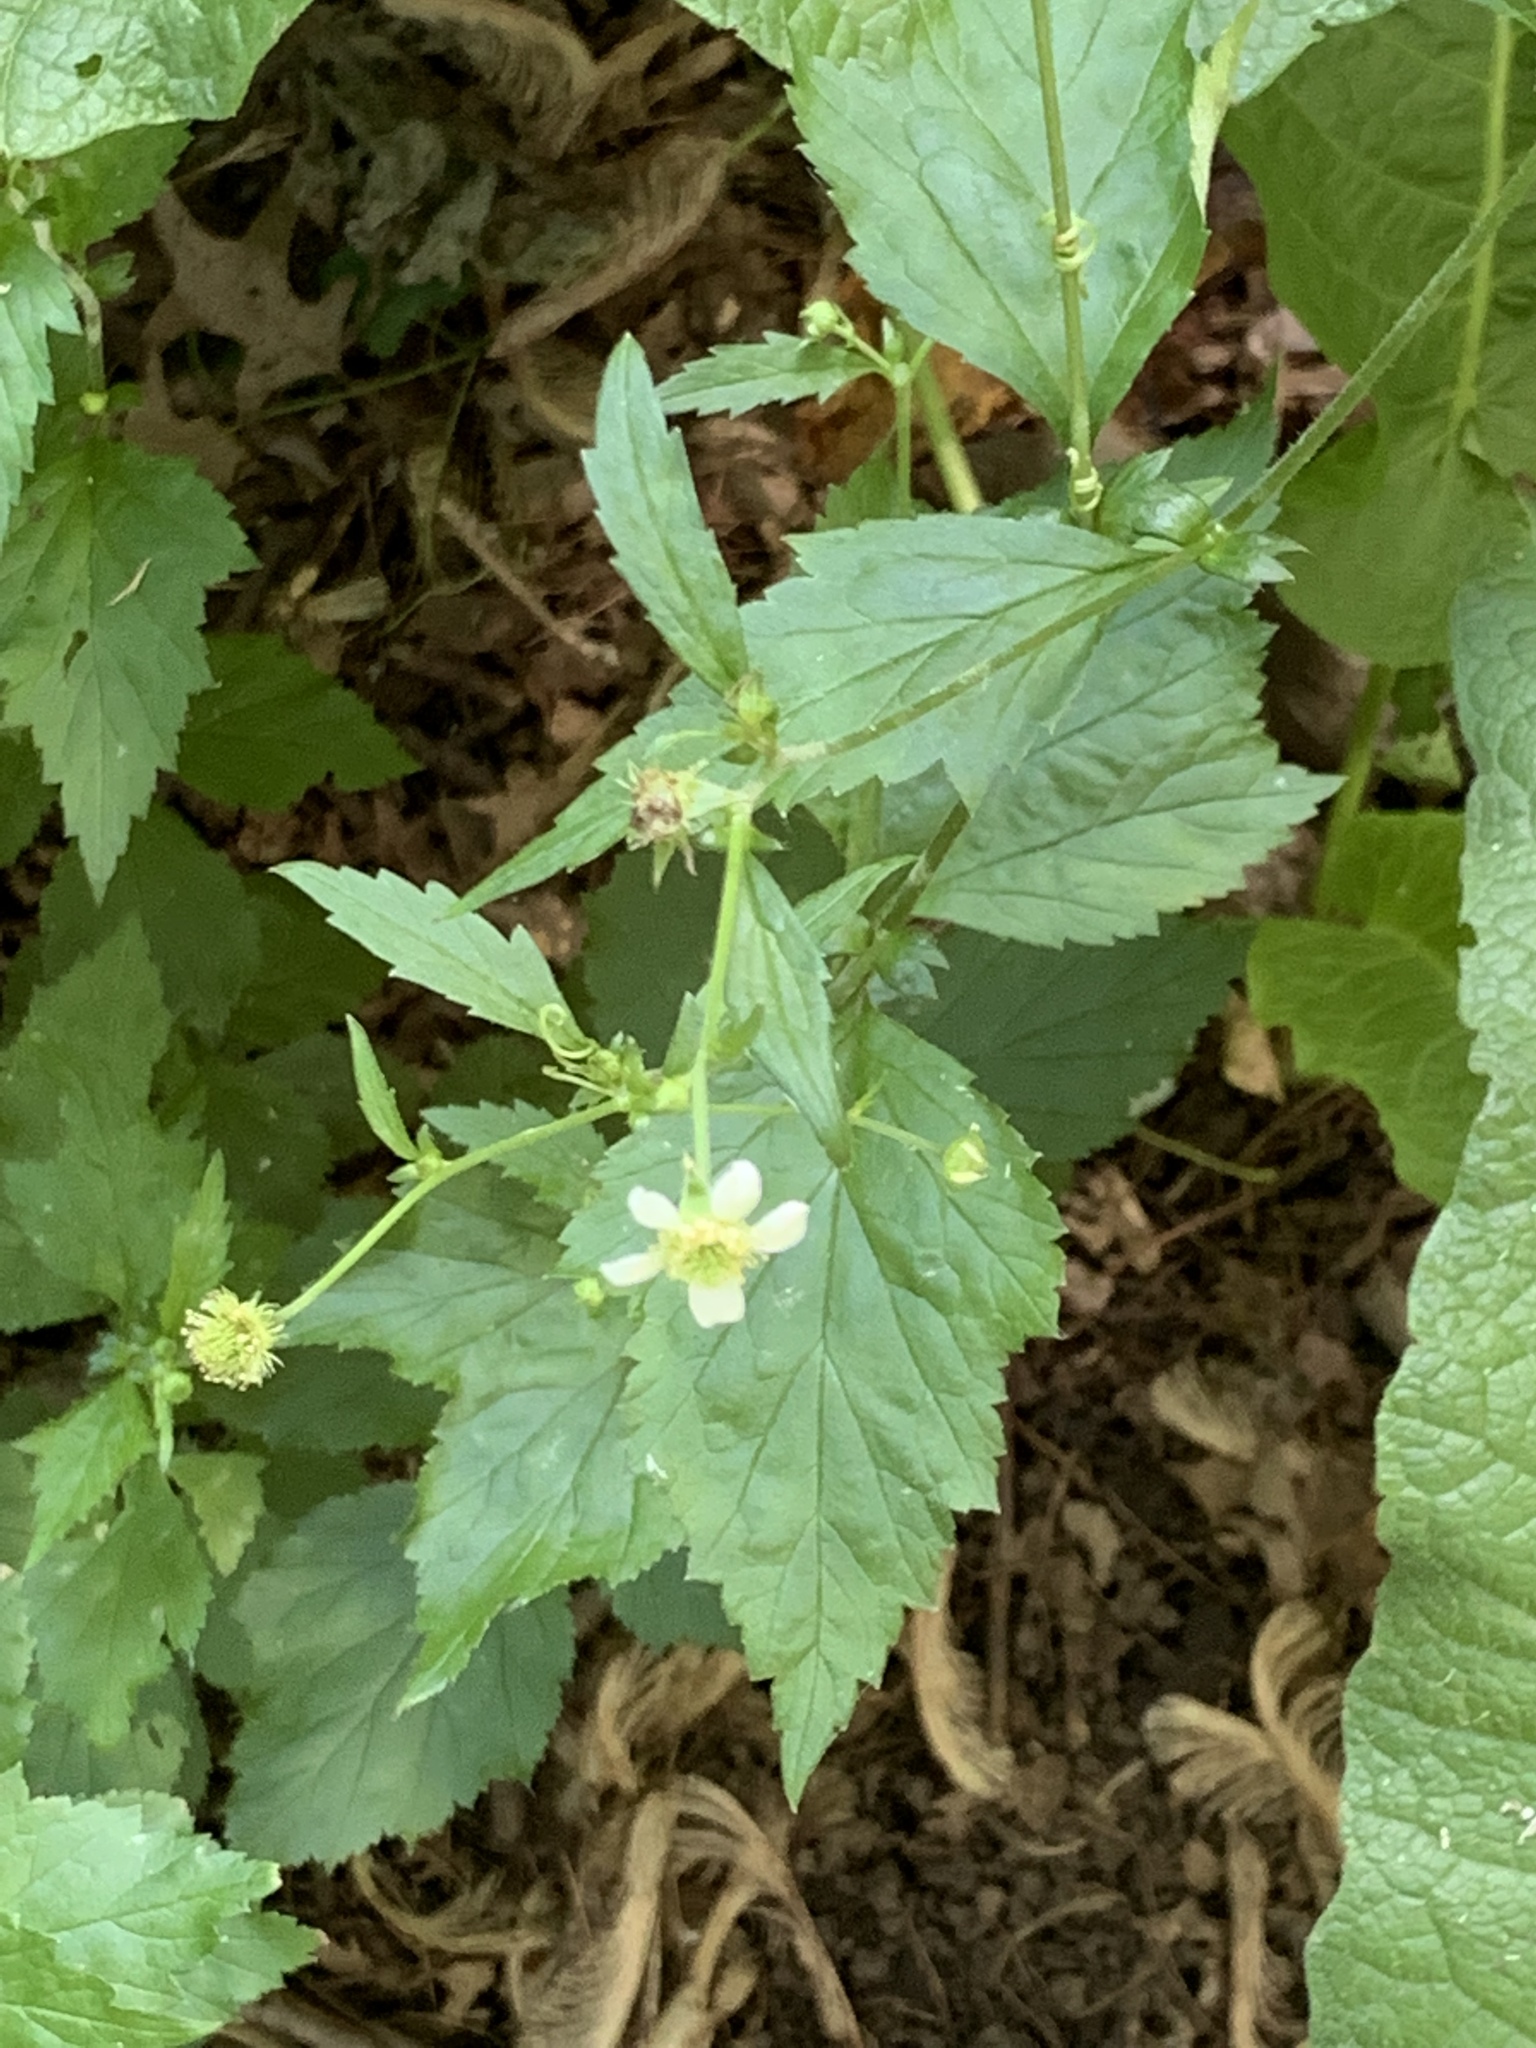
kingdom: Plantae
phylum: Tracheophyta
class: Magnoliopsida
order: Rosales
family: Rosaceae
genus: Geum
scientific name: Geum canadense
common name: White avens
